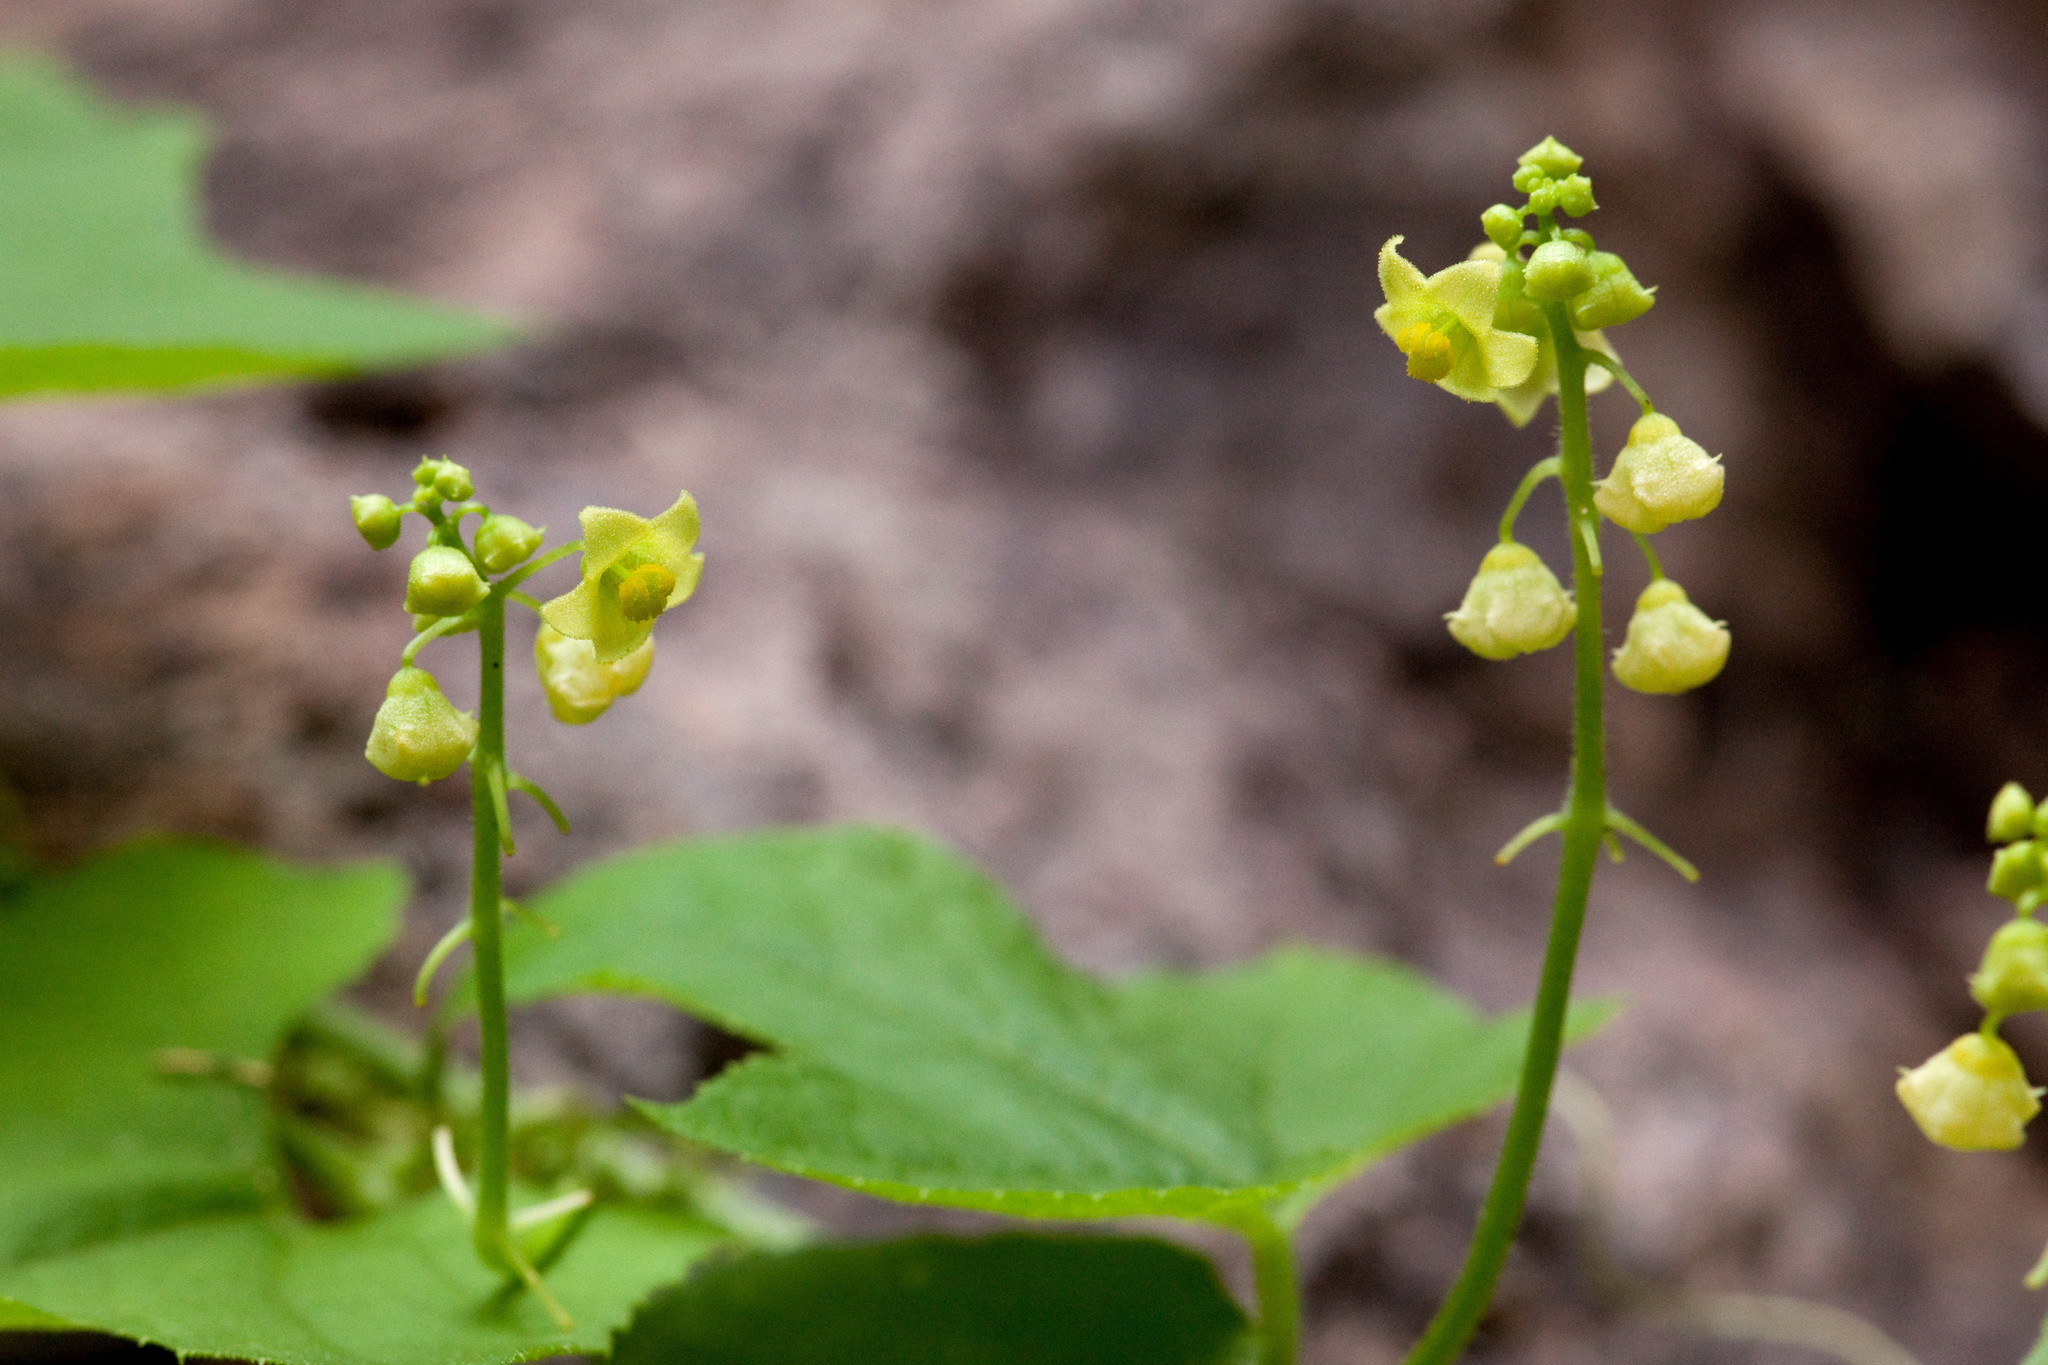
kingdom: Plantae
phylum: Tracheophyta
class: Magnoliopsida
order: Cucurbitales
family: Cucurbitaceae
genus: Sicyos
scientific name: Sicyos glaber
